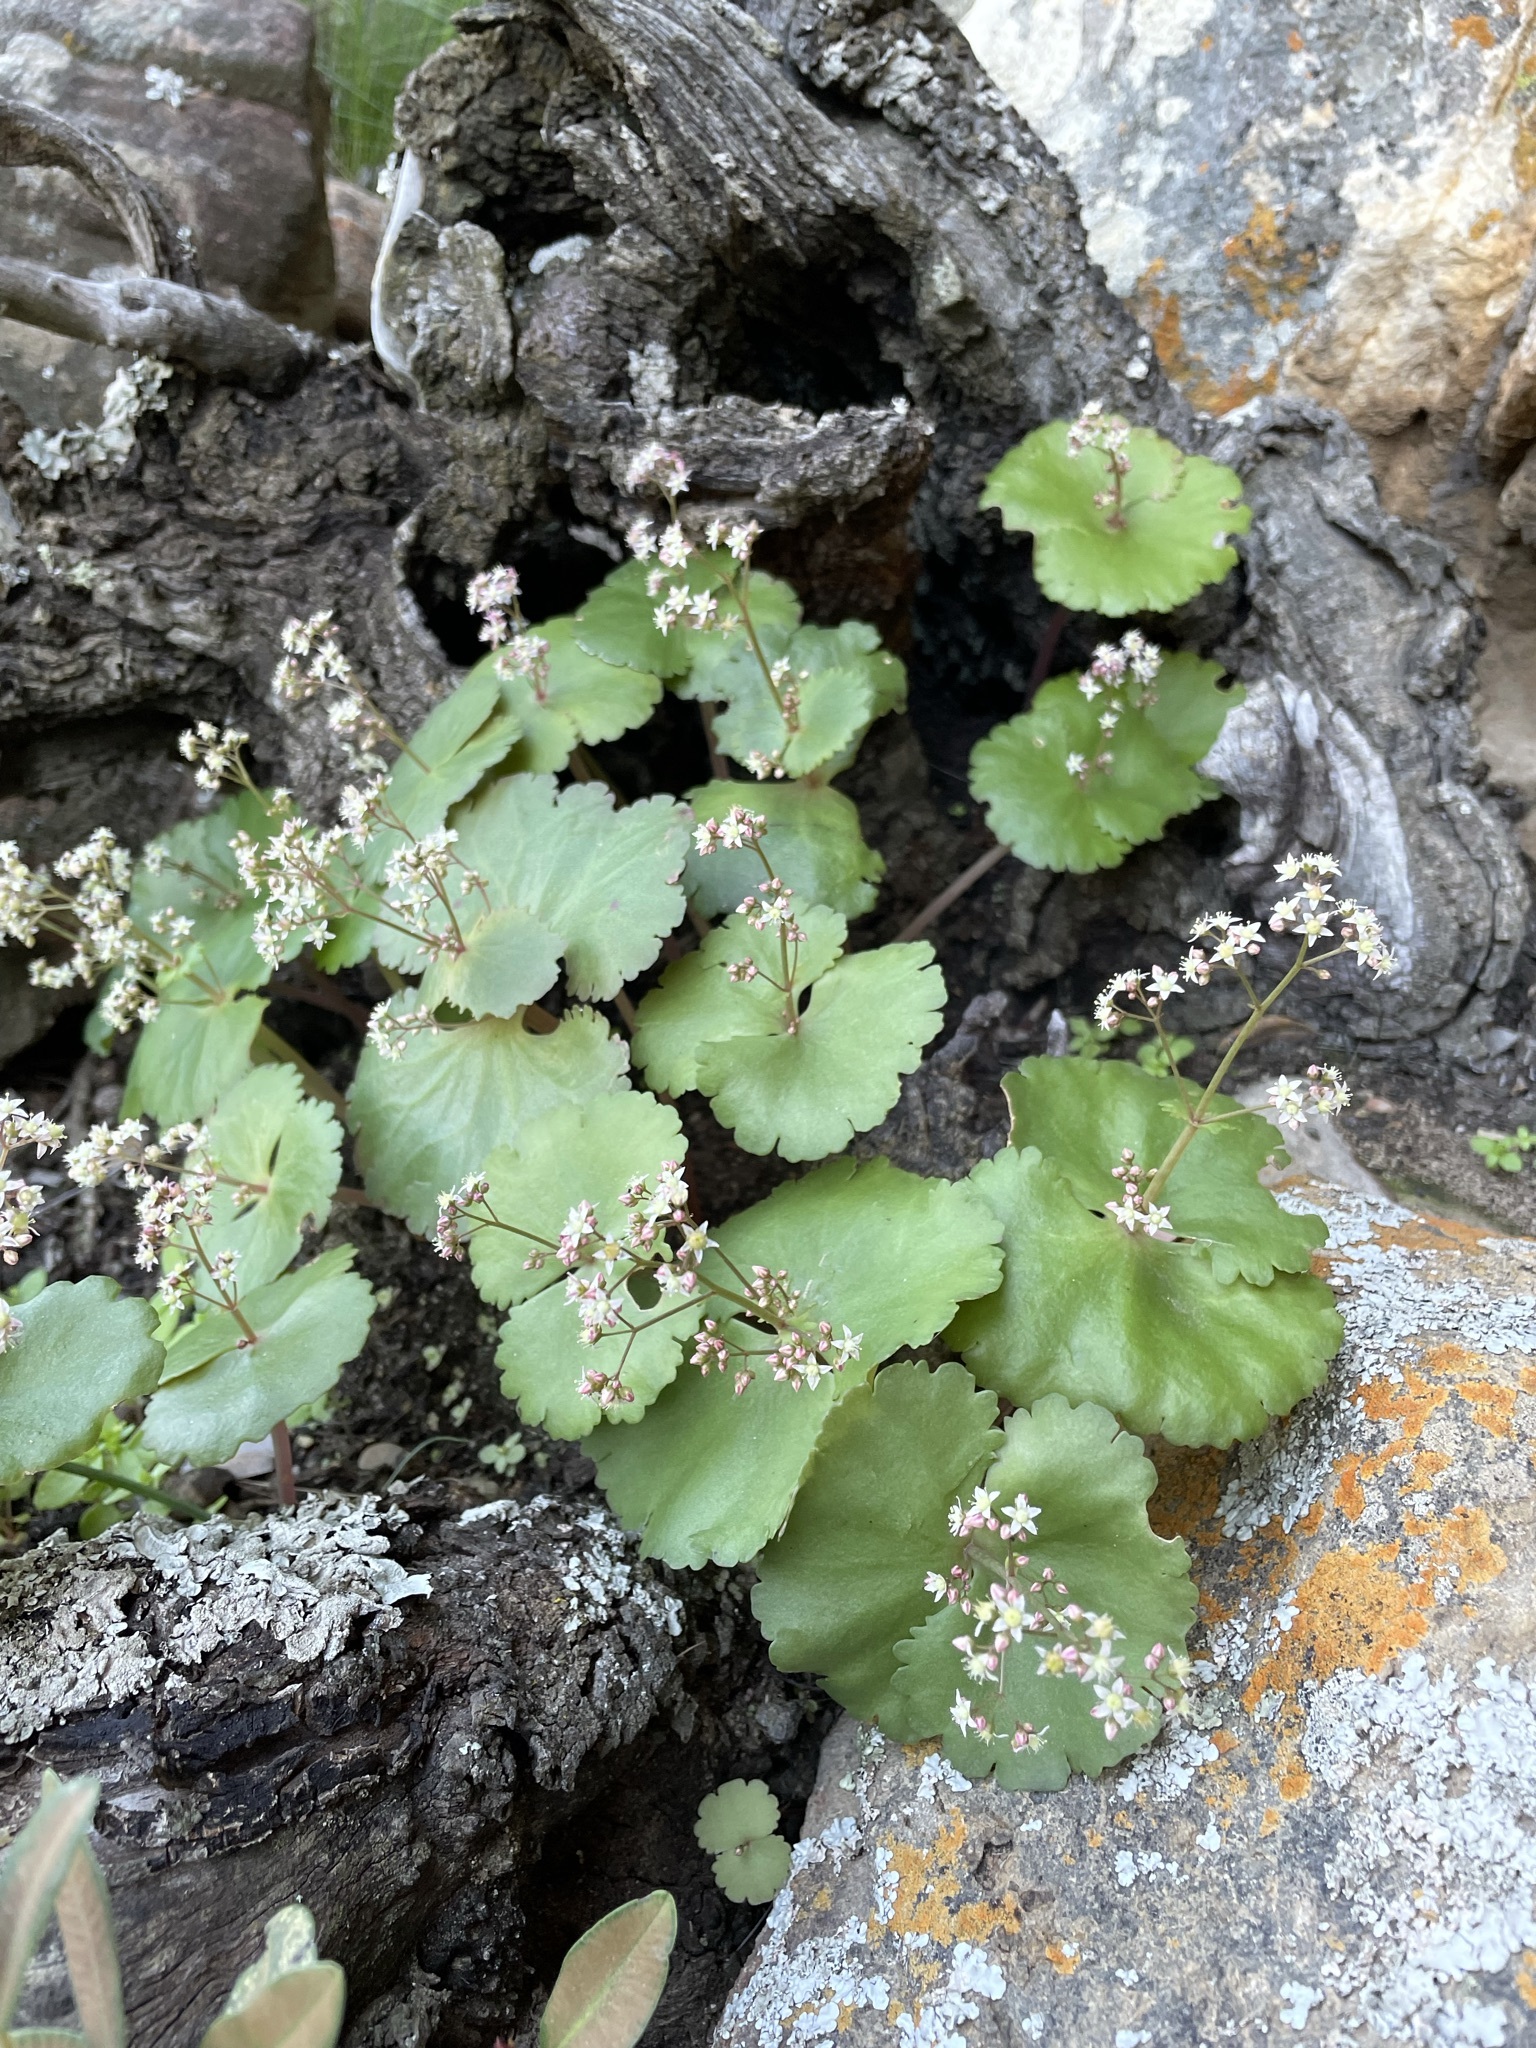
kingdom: Plantae
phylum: Tracheophyta
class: Magnoliopsida
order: Saxifragales
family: Crassulaceae
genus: Crassula
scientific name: Crassula umbella
